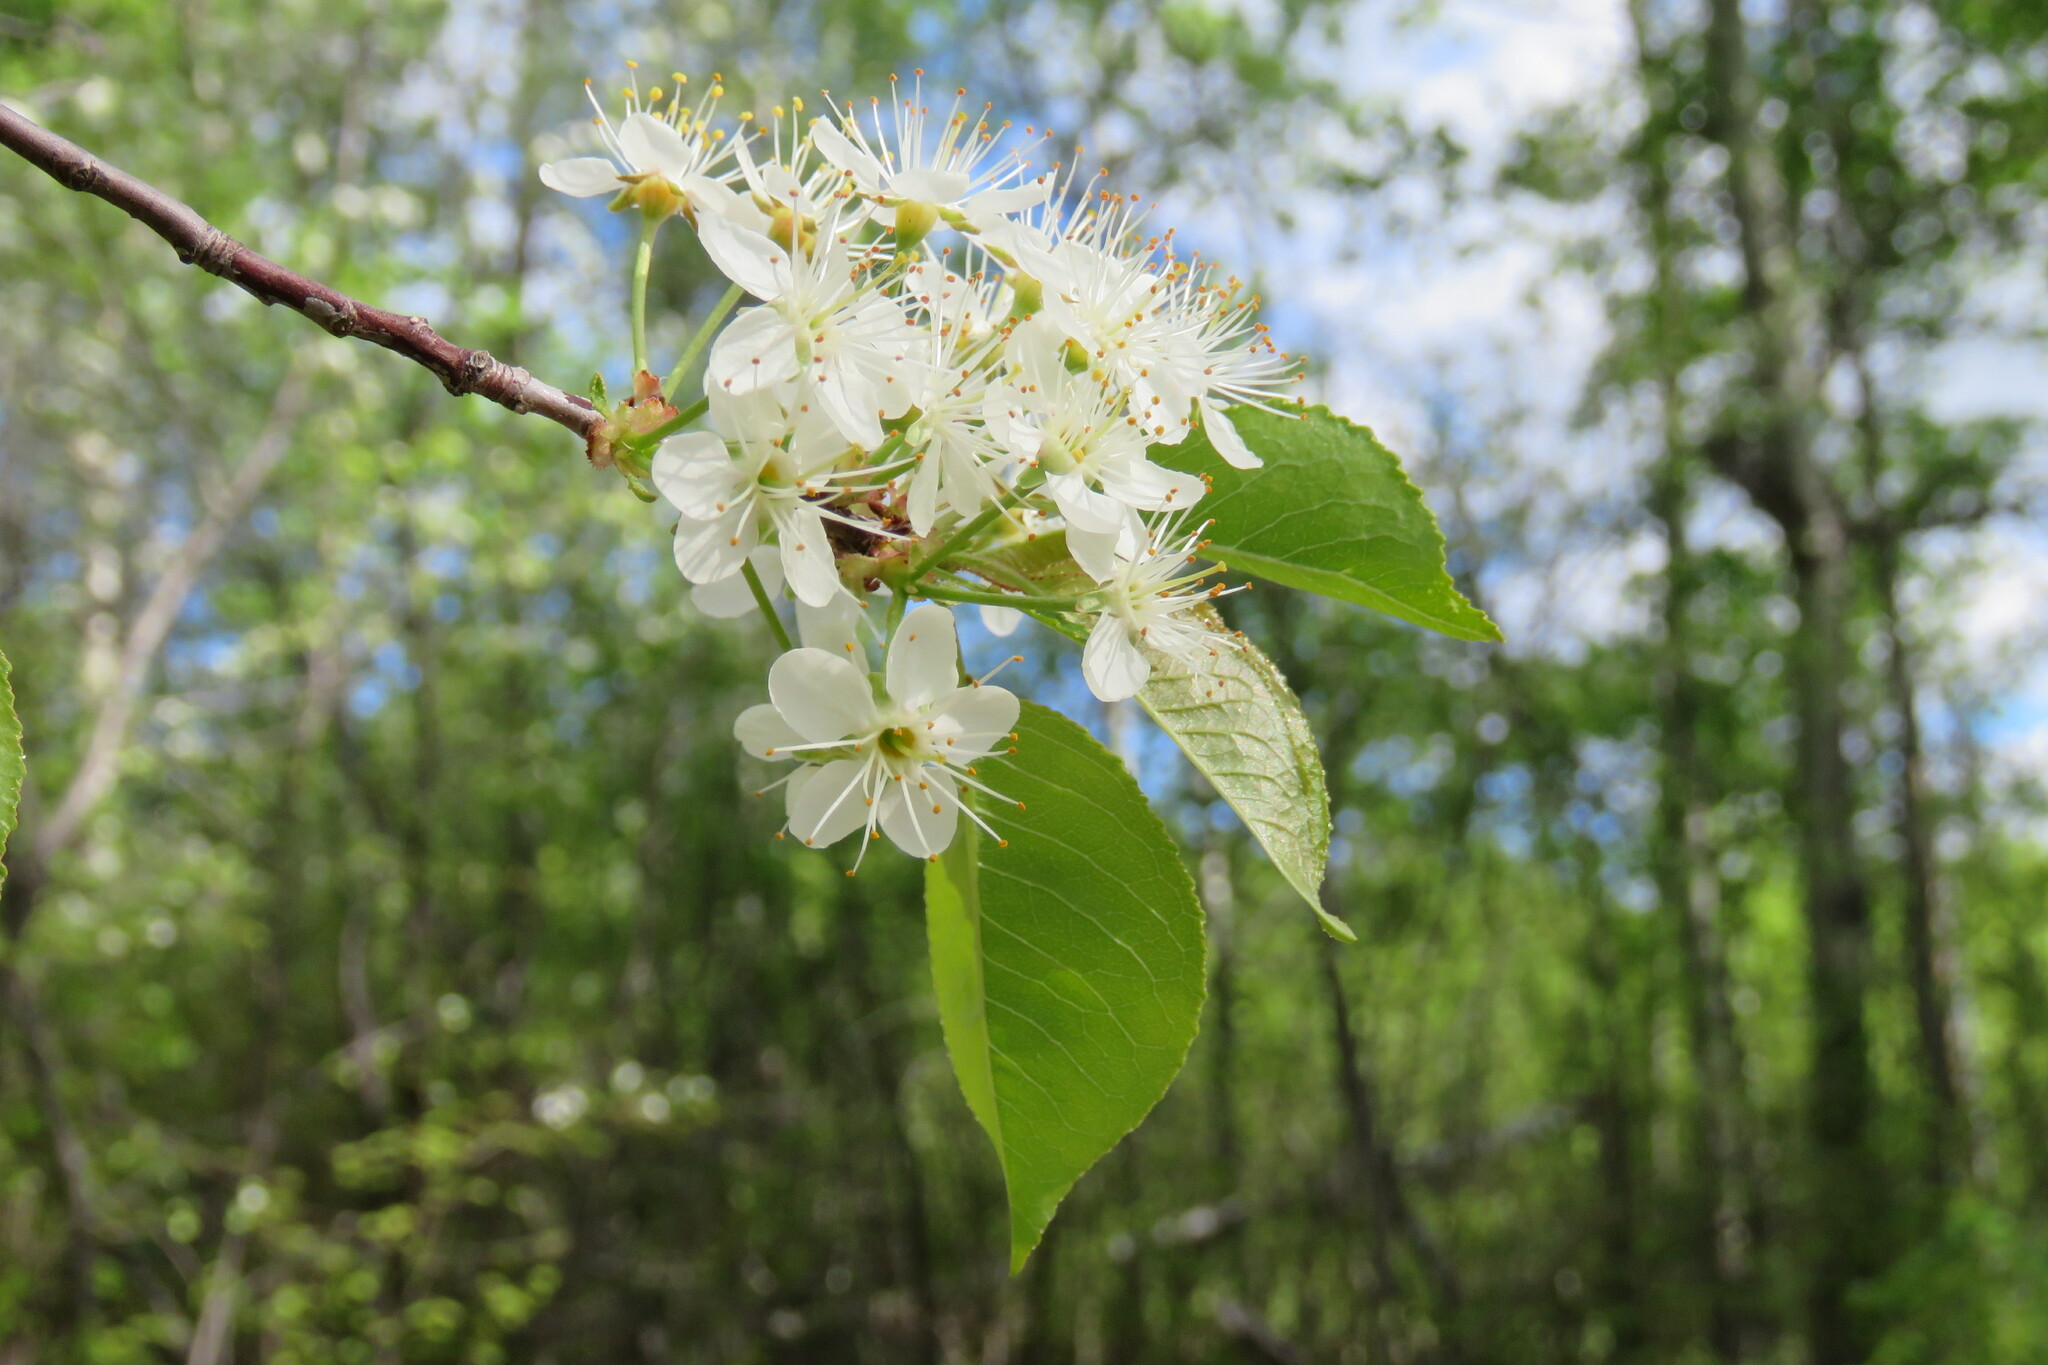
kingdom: Plantae
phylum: Tracheophyta
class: Magnoliopsida
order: Rosales
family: Rosaceae
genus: Prunus
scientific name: Prunus pensylvanica
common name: Pin cherry
